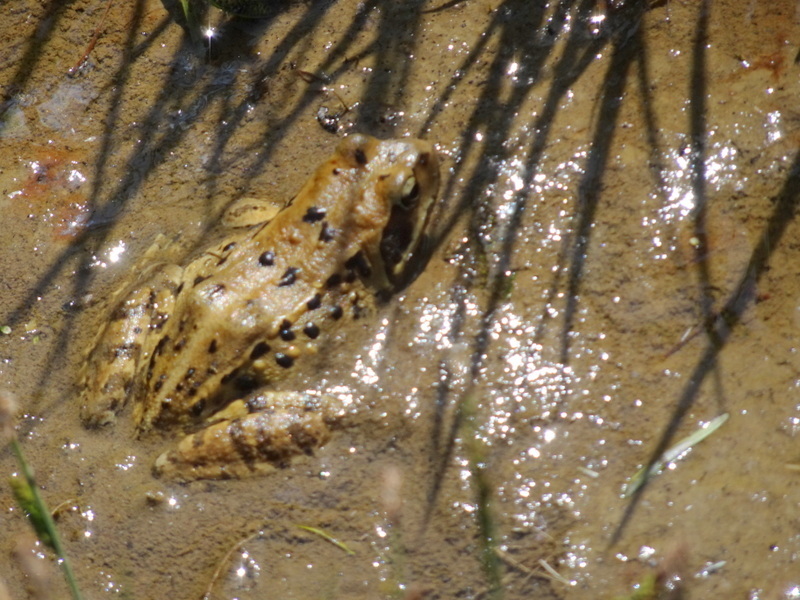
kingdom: Animalia
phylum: Chordata
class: Amphibia
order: Anura
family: Ranidae
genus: Rana
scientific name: Rana temporaria
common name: Common frog
